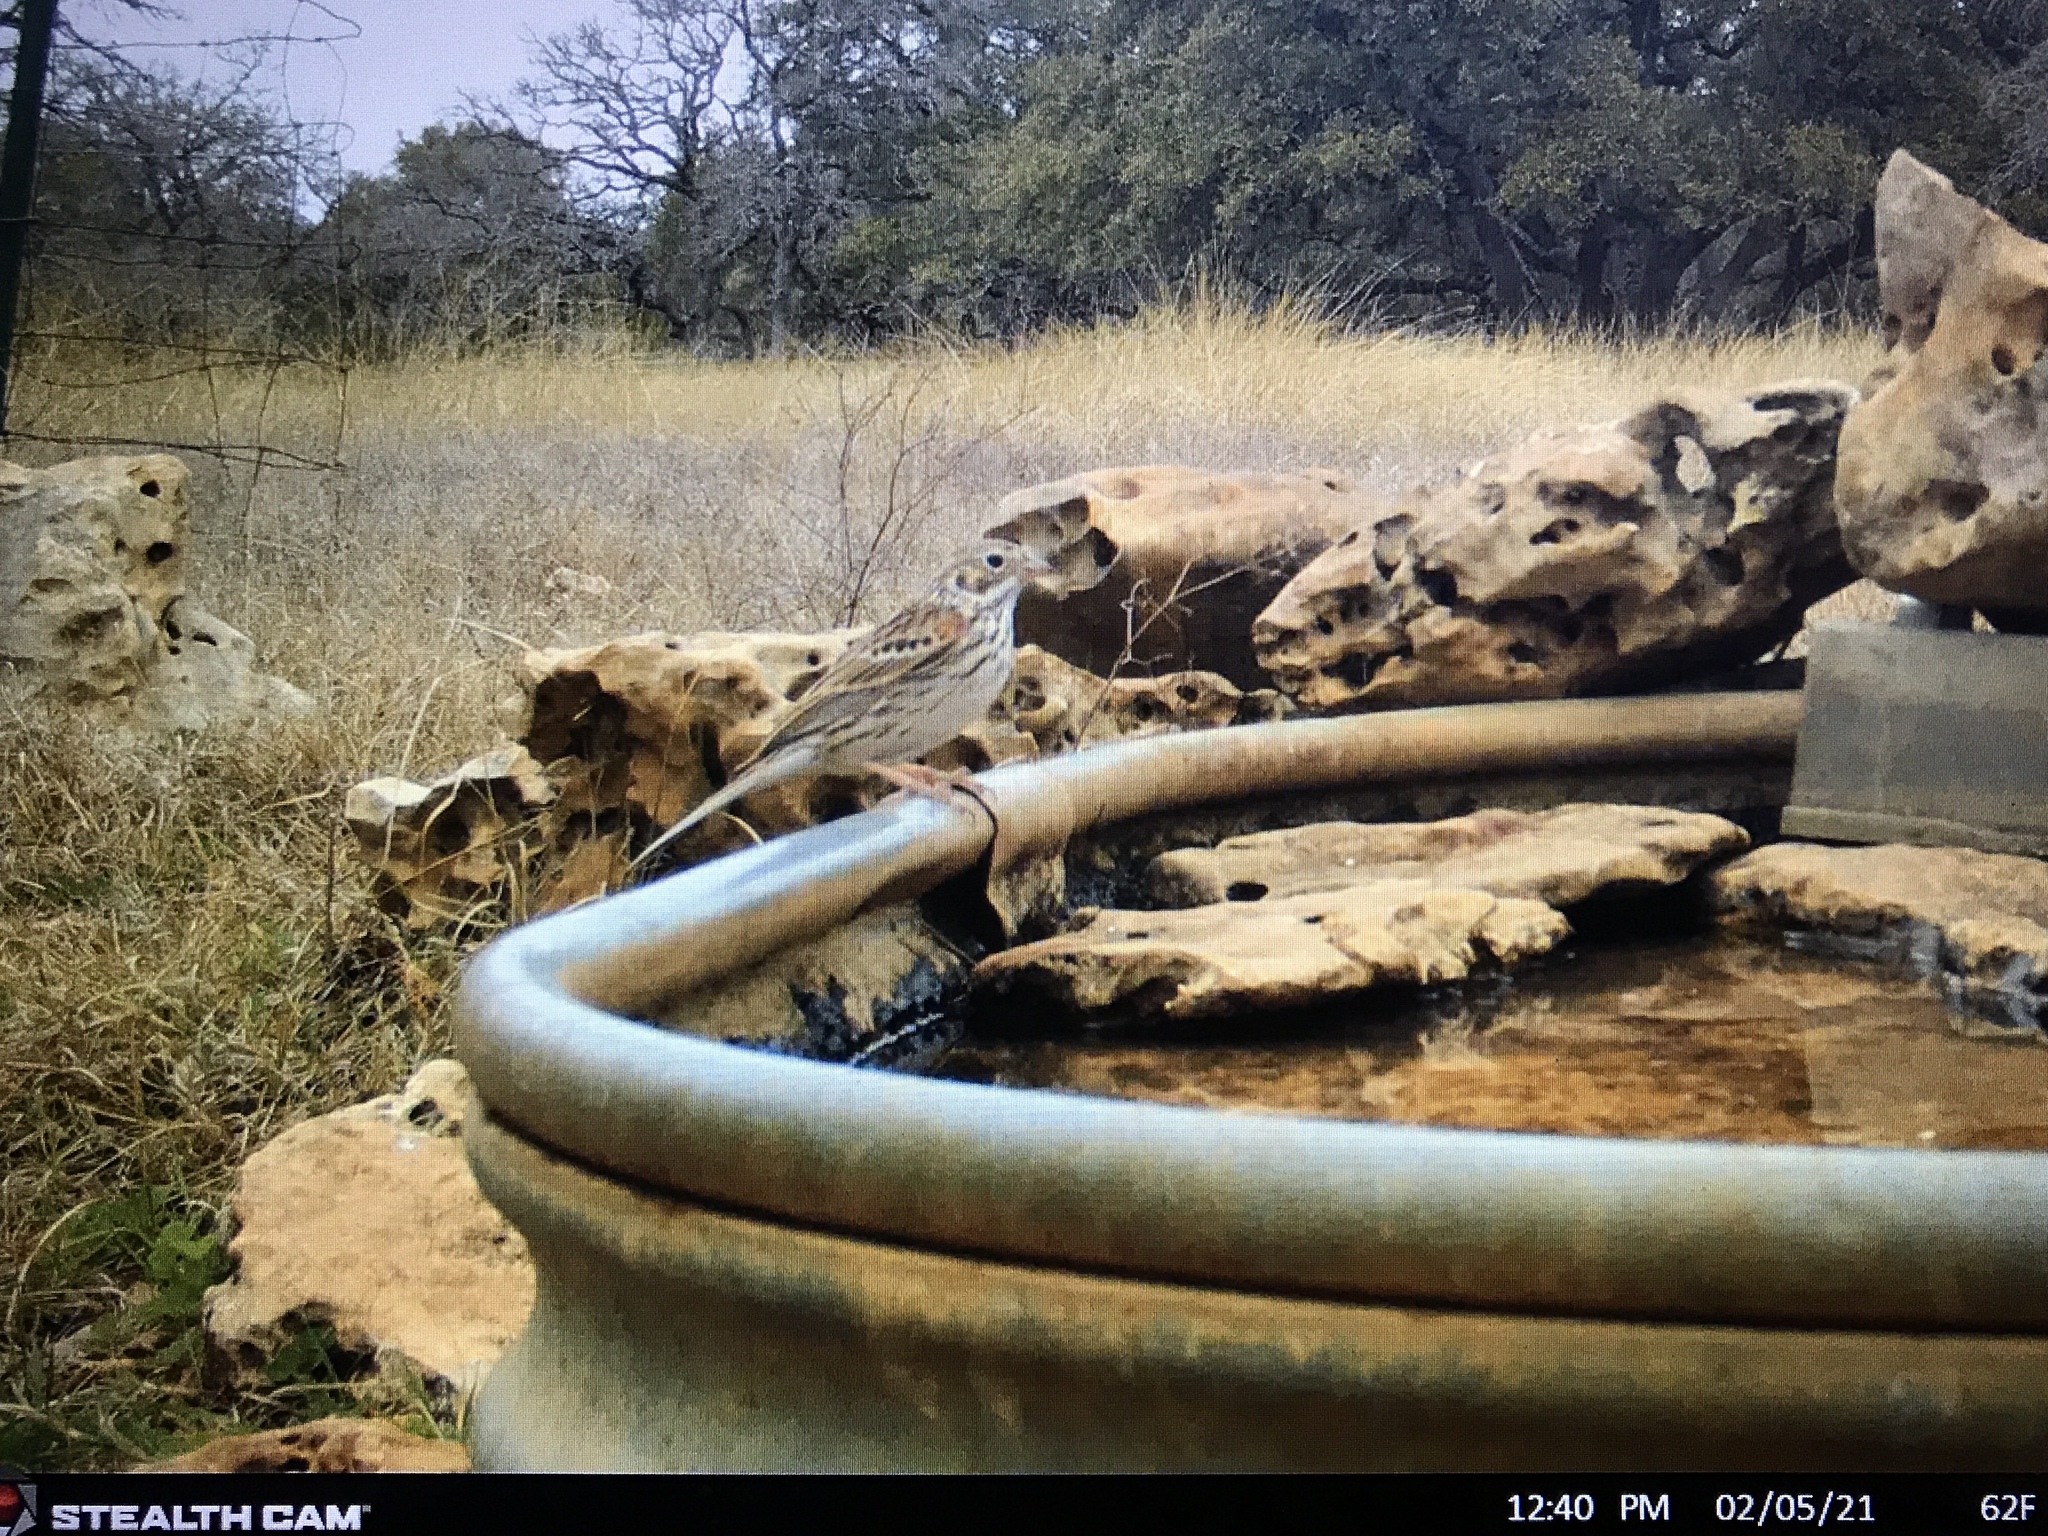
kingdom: Animalia
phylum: Chordata
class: Aves
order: Passeriformes
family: Passerellidae
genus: Pooecetes
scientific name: Pooecetes gramineus
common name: Vesper sparrow
